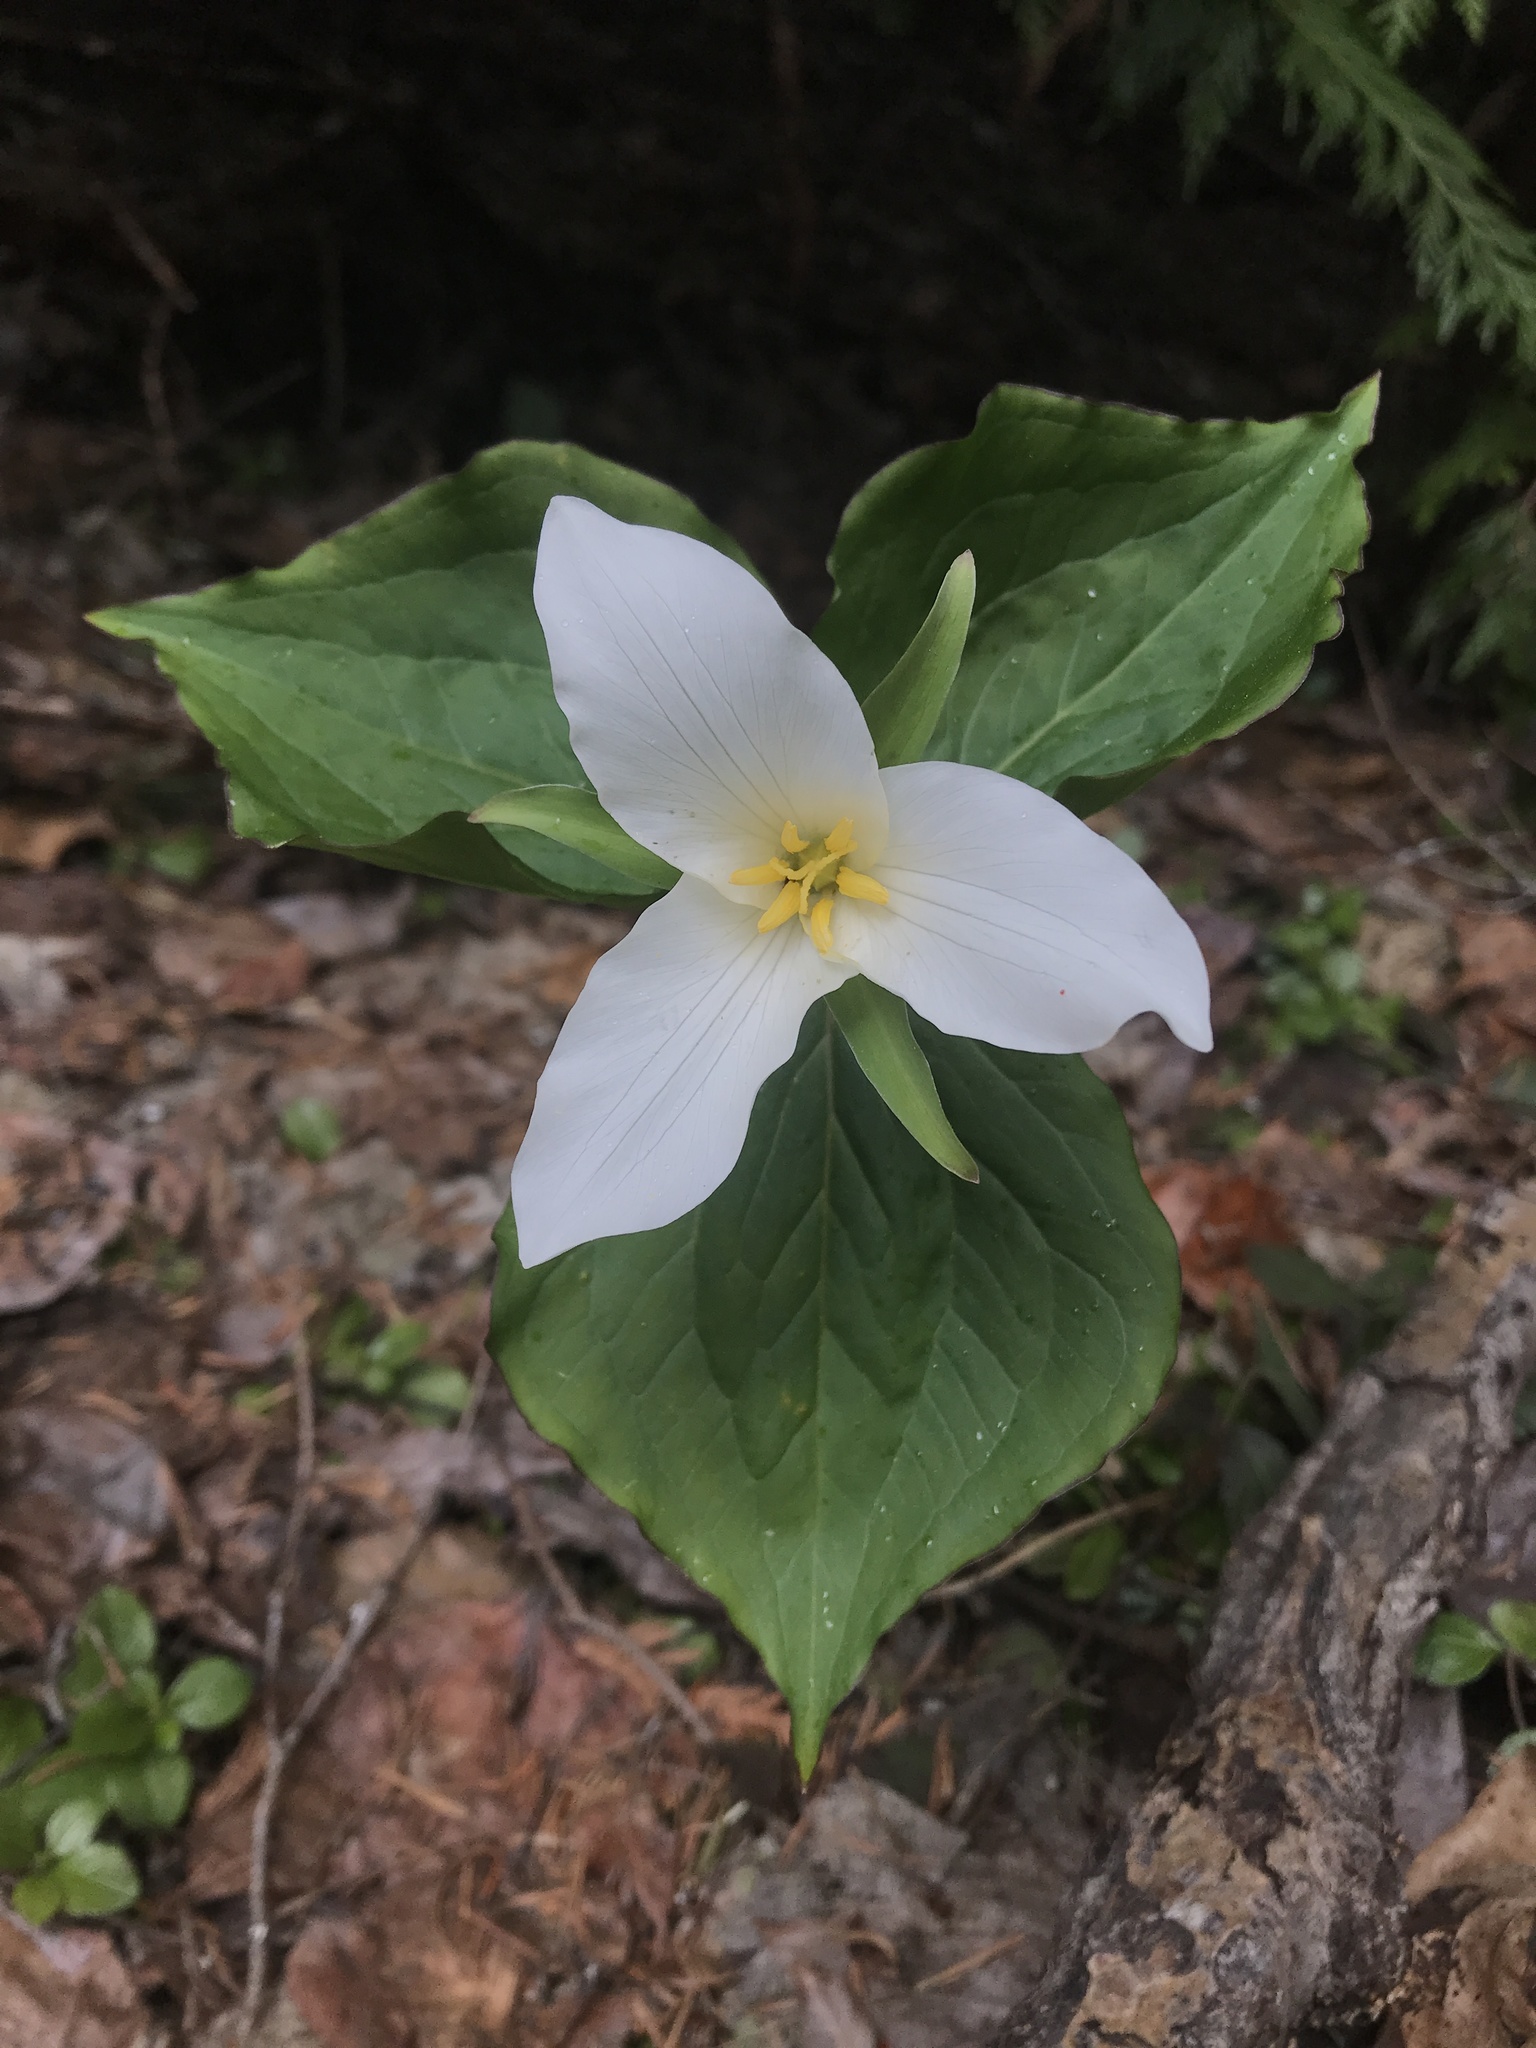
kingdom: Plantae
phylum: Tracheophyta
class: Liliopsida
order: Liliales
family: Melanthiaceae
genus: Trillium
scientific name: Trillium ovatum
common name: Pacific trillium
